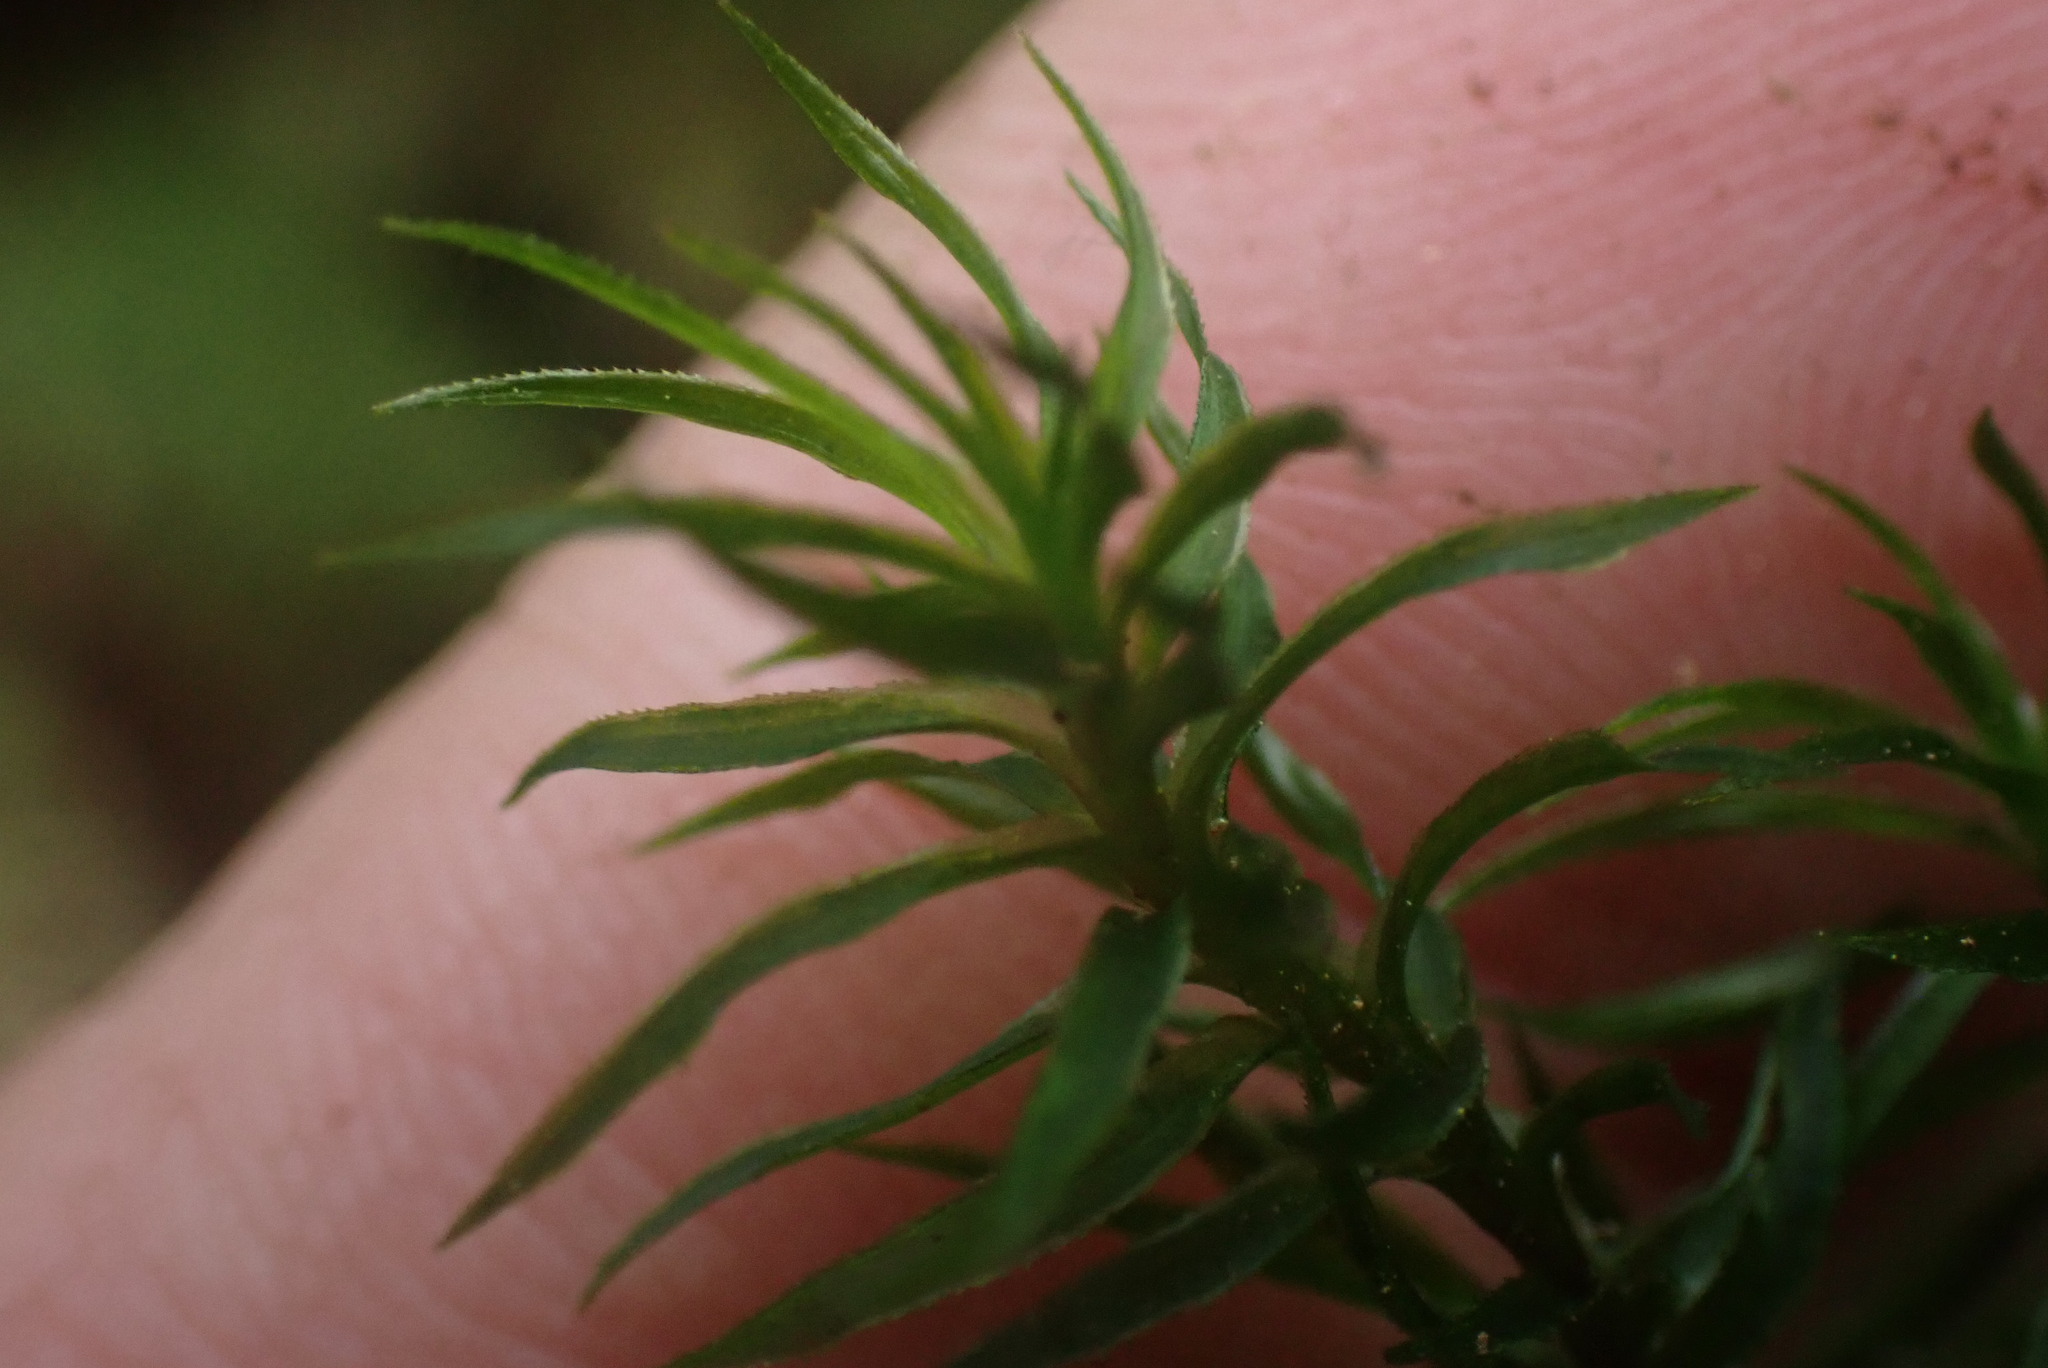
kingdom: Plantae
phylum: Bryophyta
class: Polytrichopsida
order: Polytrichales
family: Polytrichaceae
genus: Pogonatum
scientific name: Pogonatum contortum
